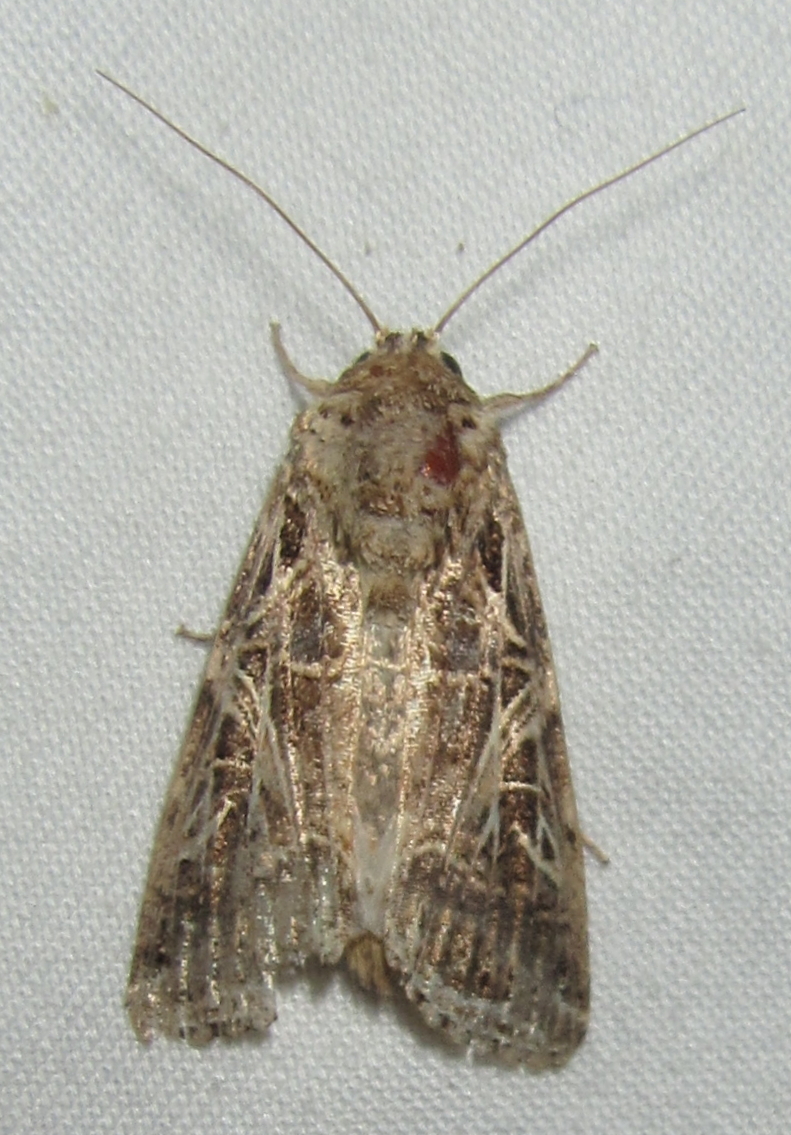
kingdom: Animalia
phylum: Arthropoda
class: Insecta
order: Lepidoptera
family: Noctuidae
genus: Spodoptera
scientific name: Spodoptera littoralis
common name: Egyptian cotton leafworm
